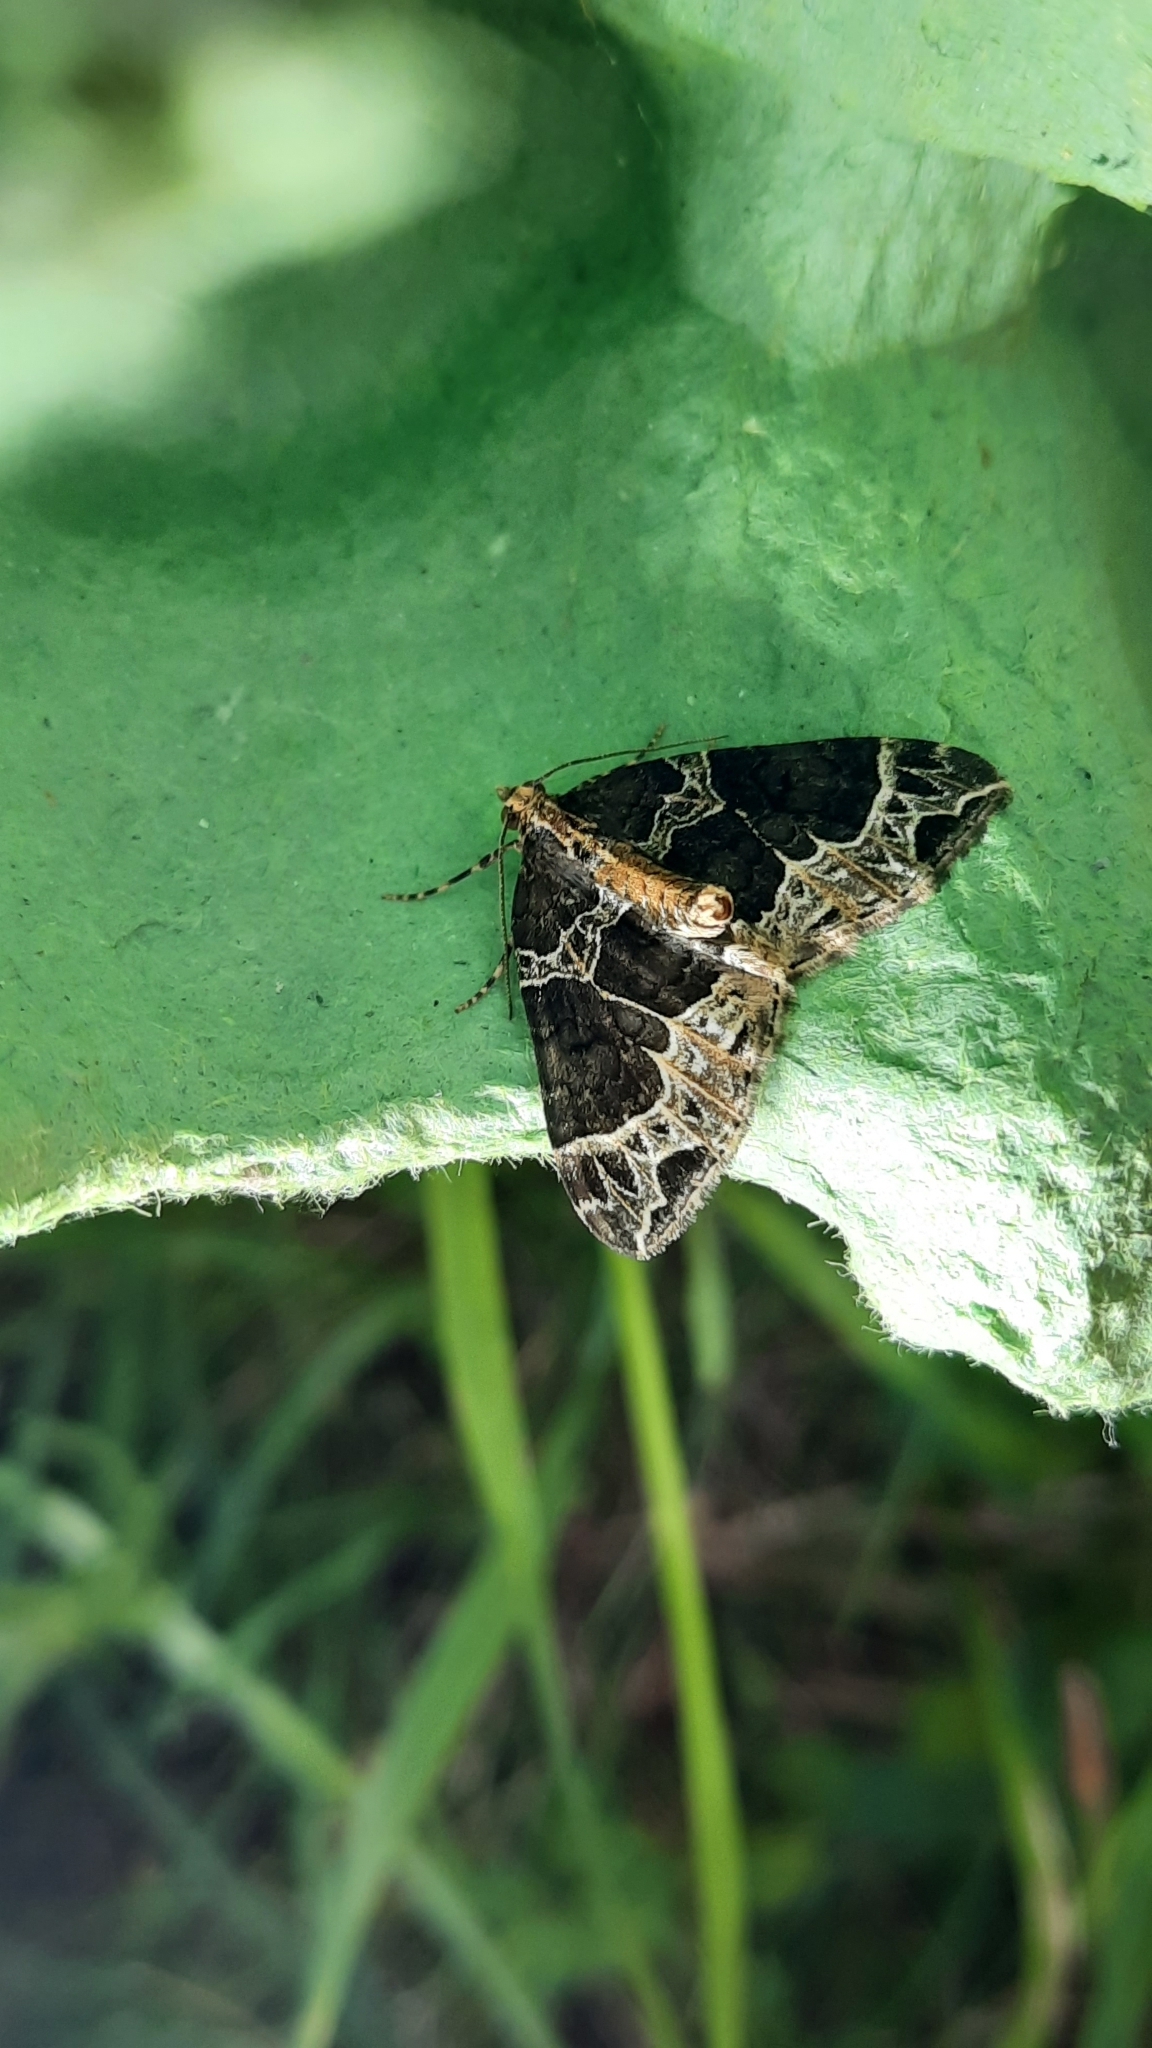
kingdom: Animalia
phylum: Arthropoda
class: Insecta
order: Lepidoptera
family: Geometridae
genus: Ecliptopera
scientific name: Ecliptopera silaceata
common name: Small phoenix
